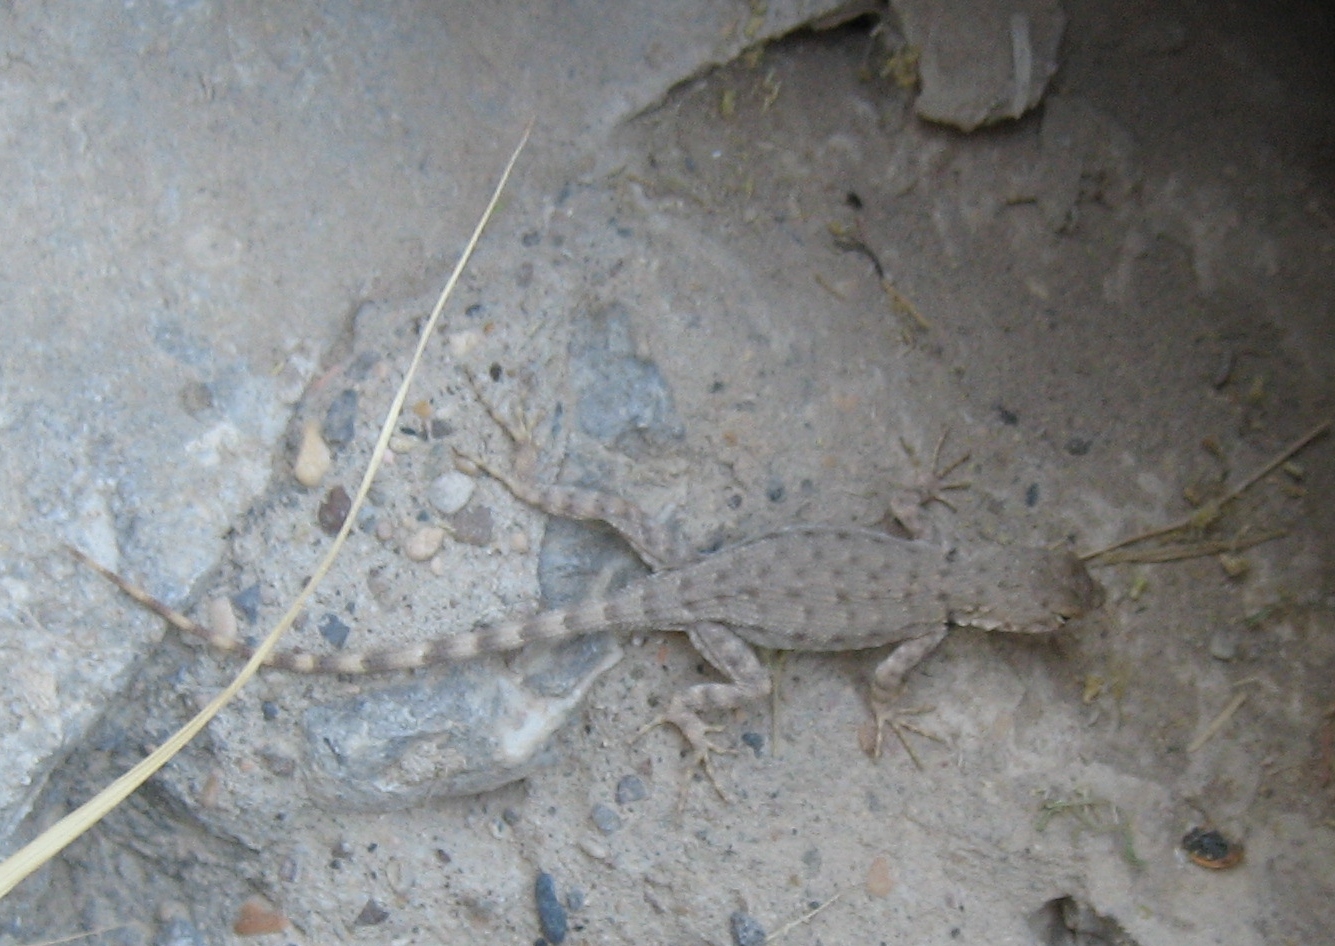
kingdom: Animalia
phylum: Chordata
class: Squamata
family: Phrynosomatidae
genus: Sceloporus
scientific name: Sceloporus merriami
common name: Canyon lizard
